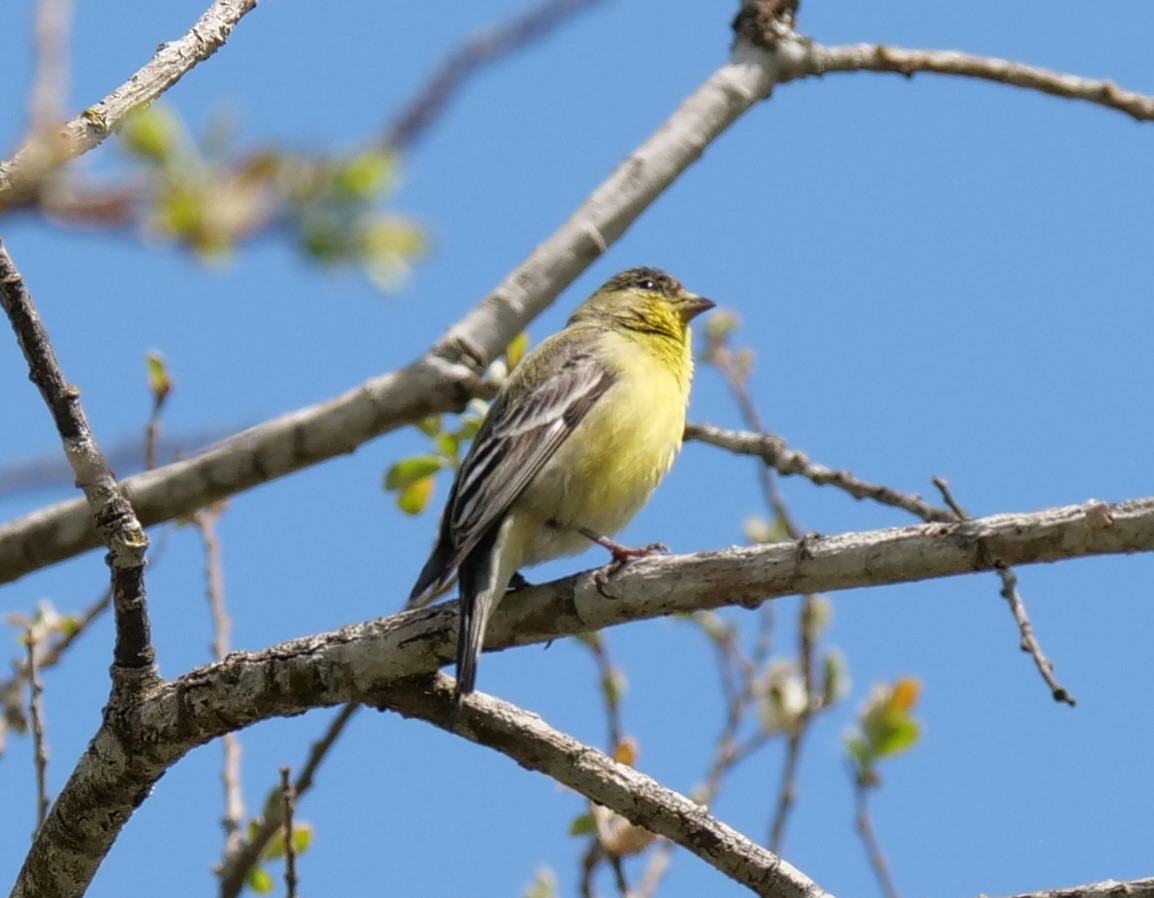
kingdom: Animalia
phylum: Chordata
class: Aves
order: Passeriformes
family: Fringillidae
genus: Spinus
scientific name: Spinus psaltria
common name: Lesser goldfinch
